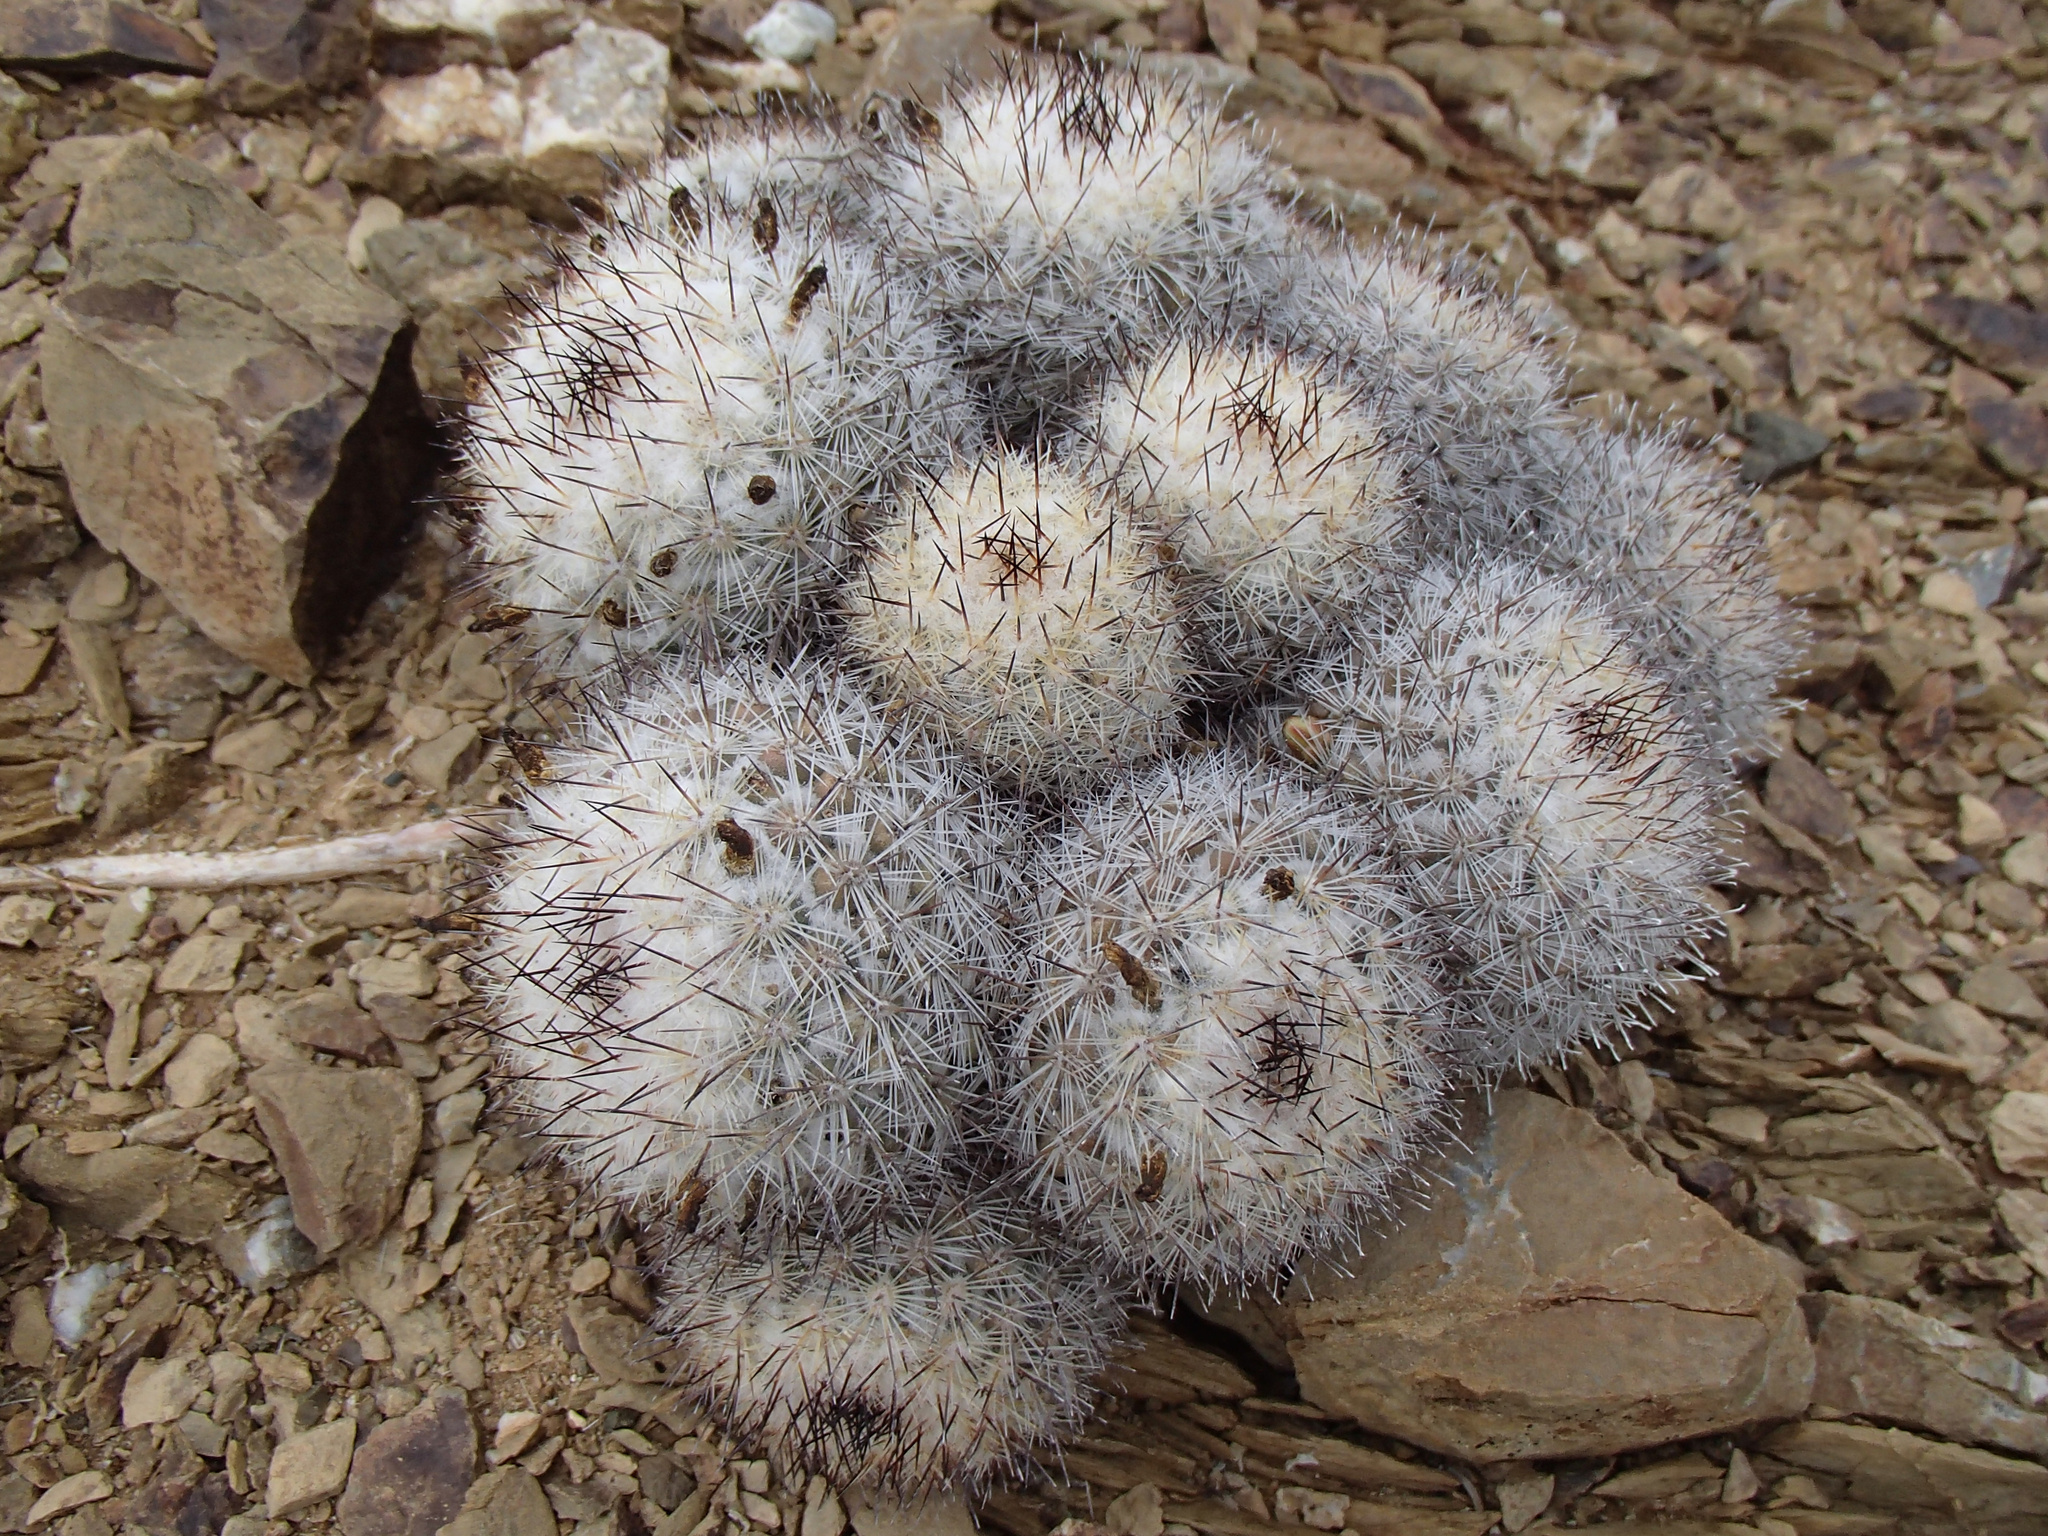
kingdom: Plantae
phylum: Tracheophyta
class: Magnoliopsida
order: Caryophyllales
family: Cactaceae
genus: Cochemiea
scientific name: Cochemiea palmeri
